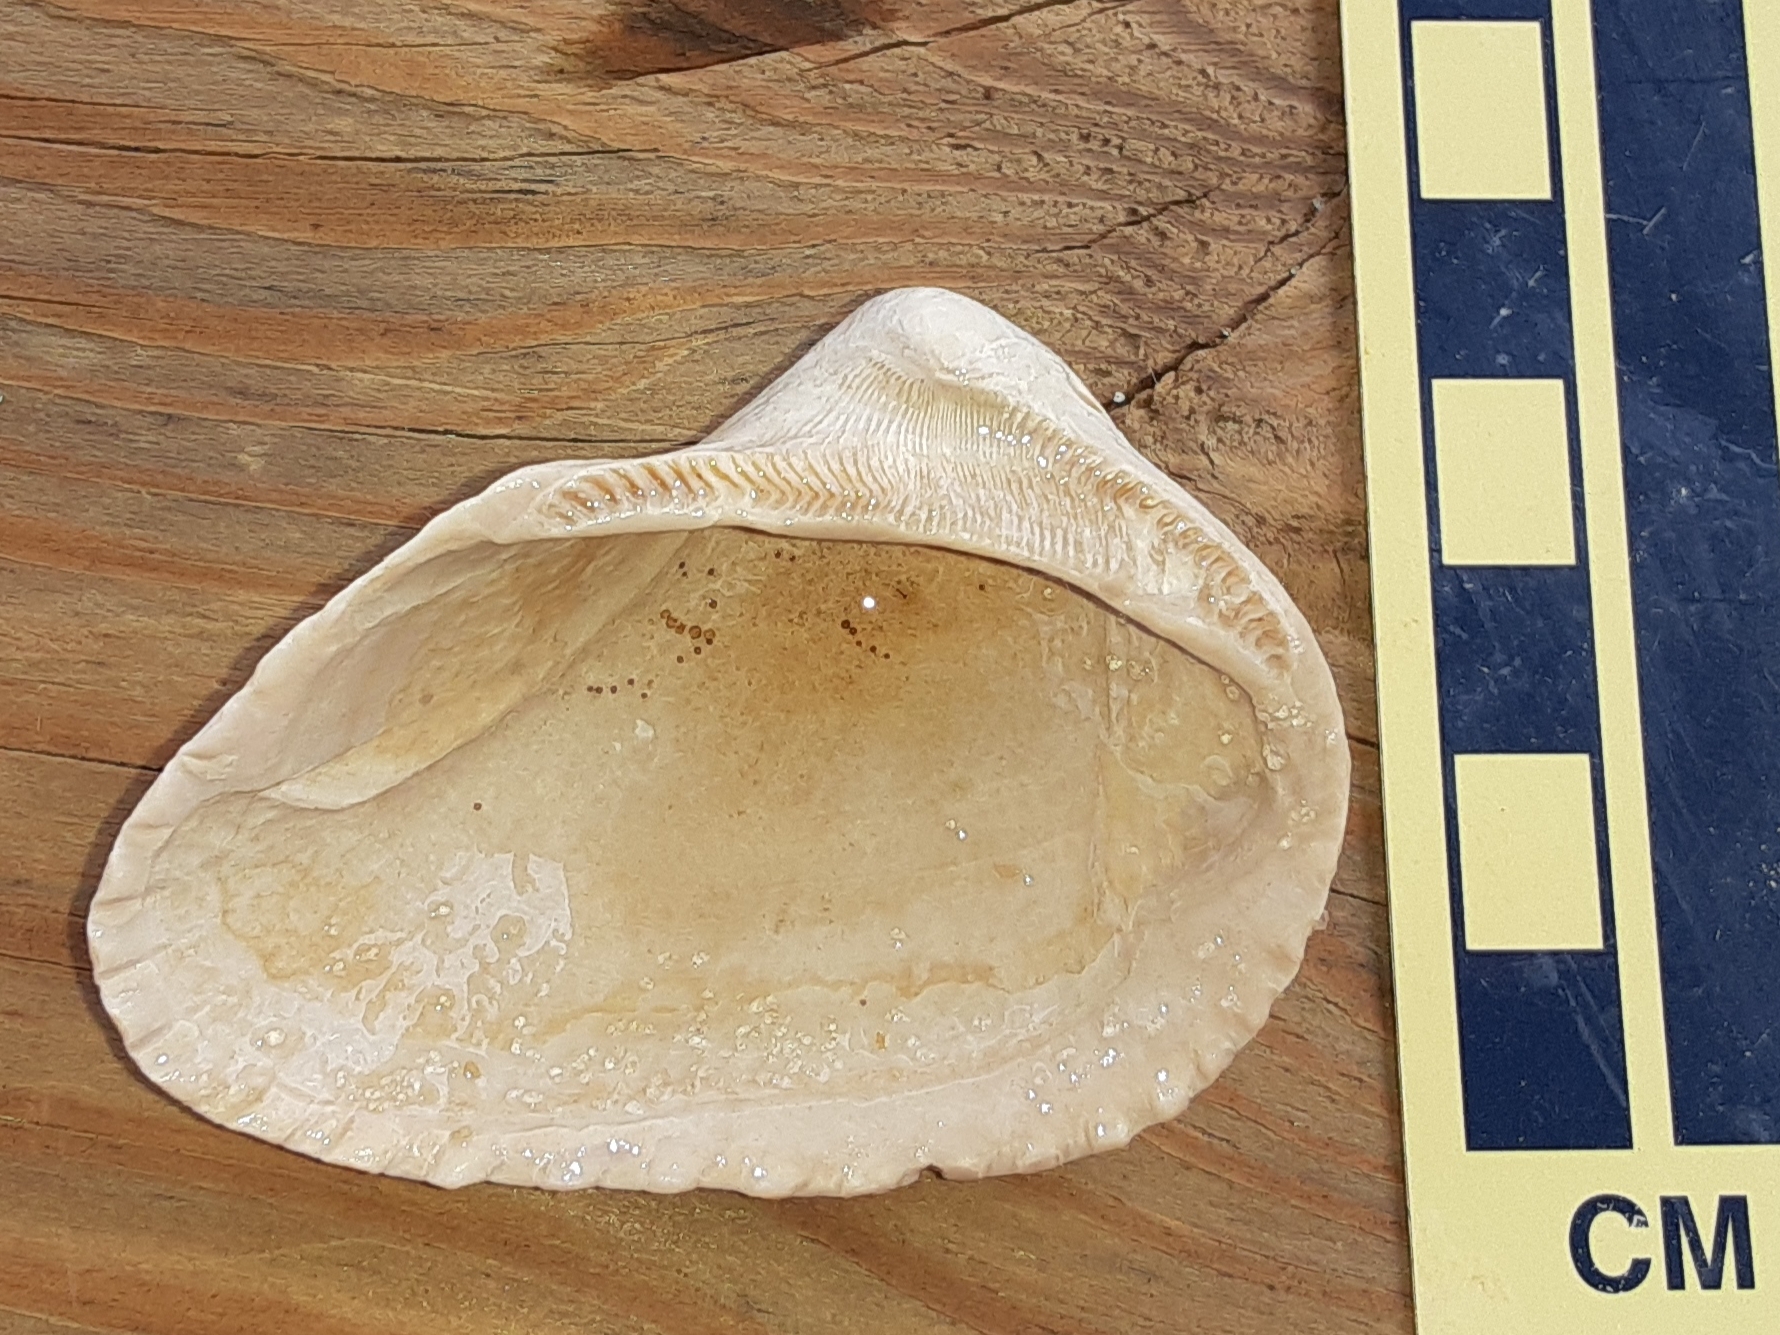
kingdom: Animalia
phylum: Mollusca
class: Bivalvia
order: Arcida
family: Noetiidae
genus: Noetia
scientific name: Noetia ponderosa
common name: Ponderous ark
